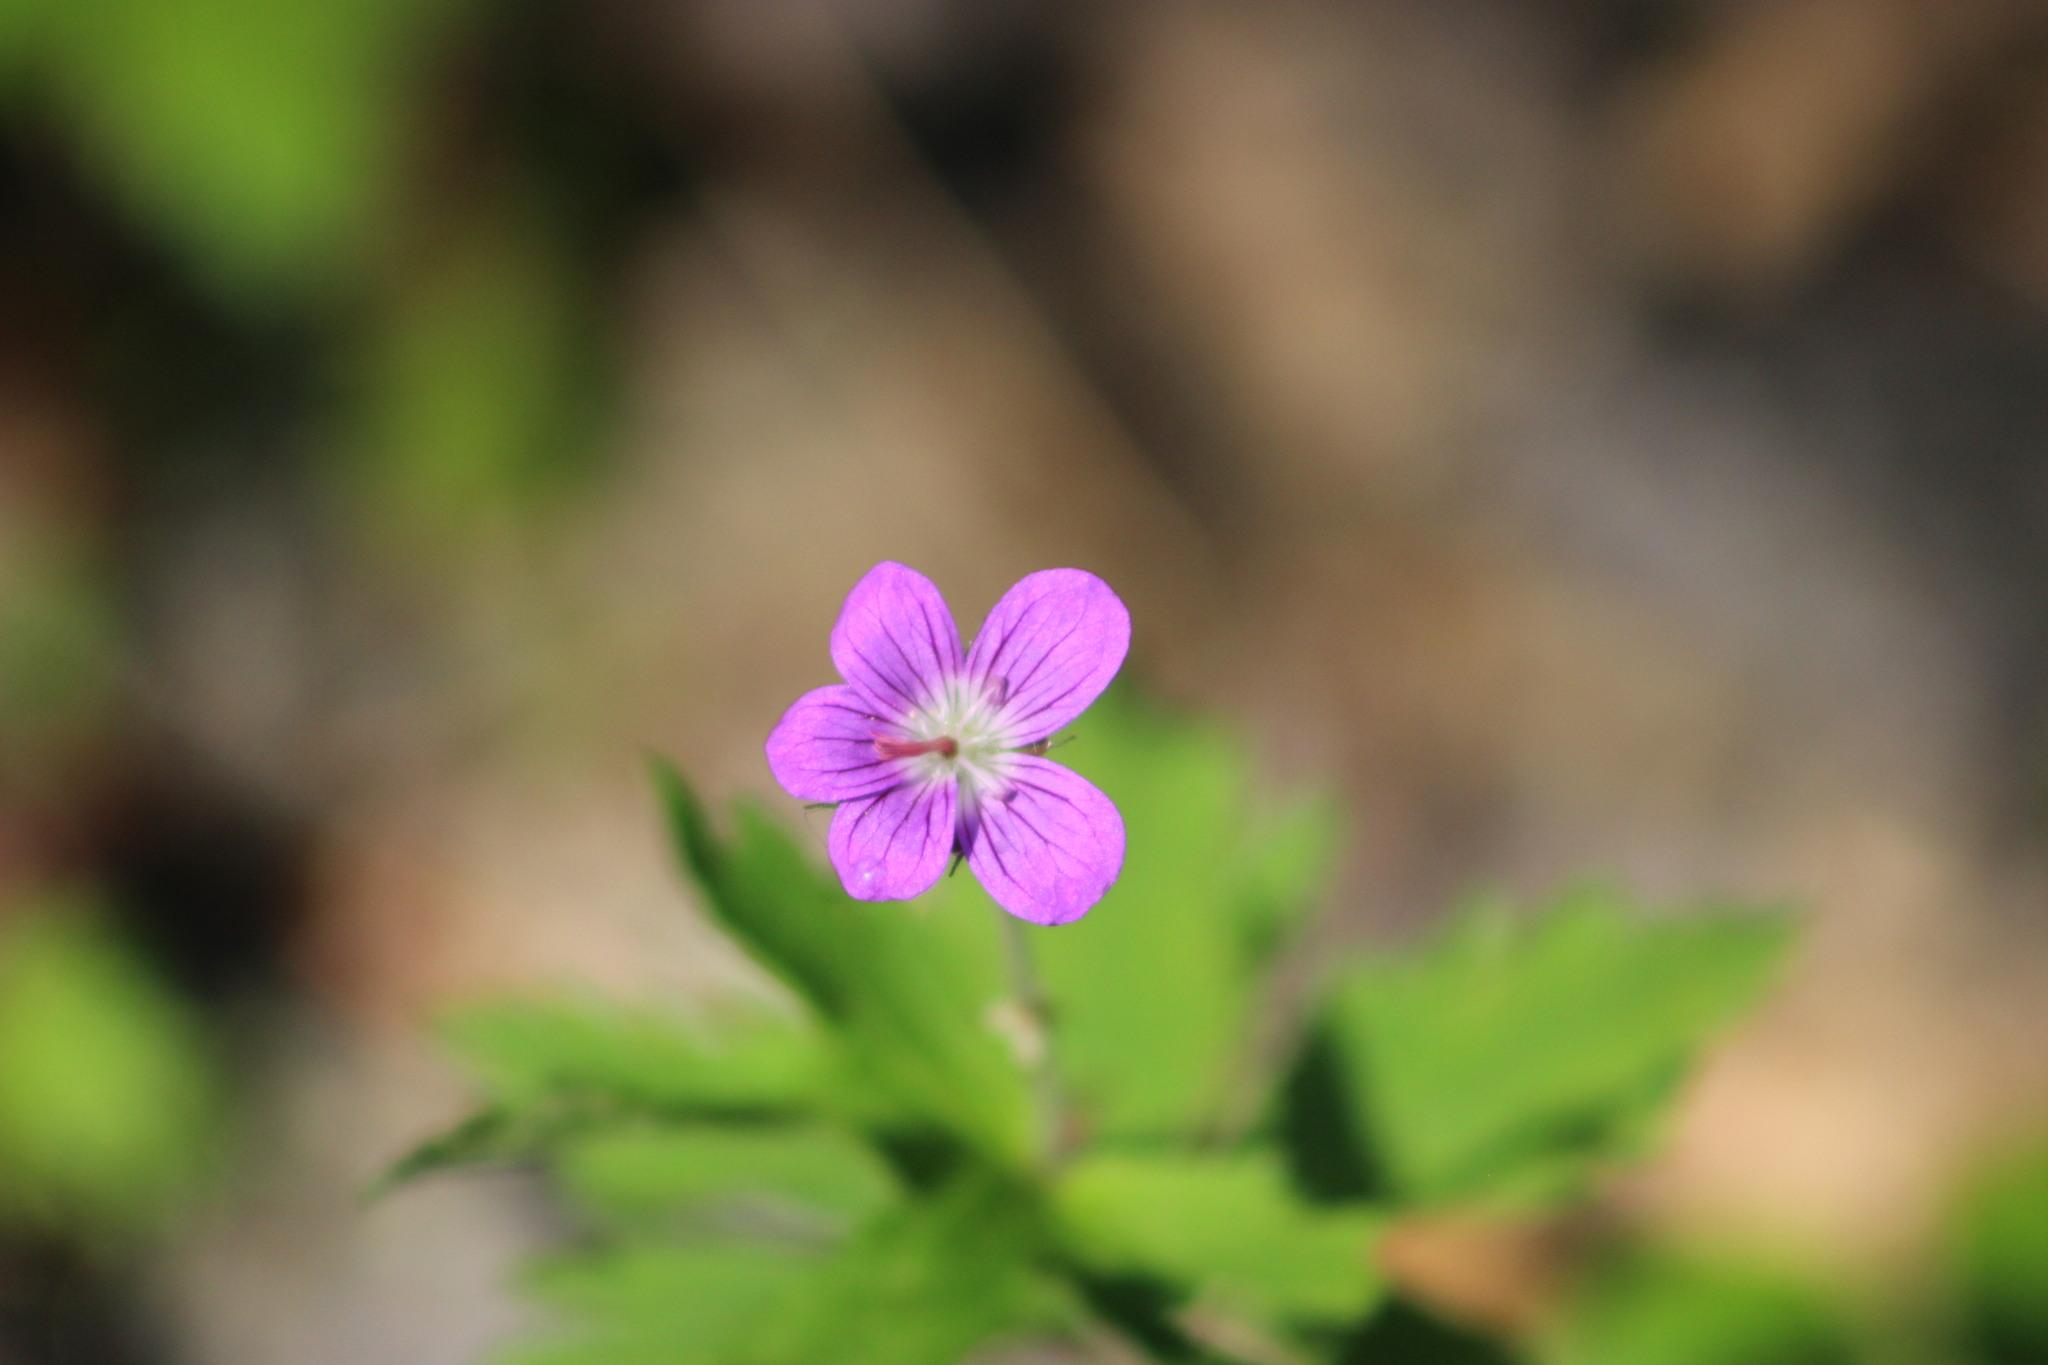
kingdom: Plantae
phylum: Tracheophyta
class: Magnoliopsida
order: Geraniales
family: Geraniaceae
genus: Geranium
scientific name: Geranium sylvaticum
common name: Wood crane's-bill
